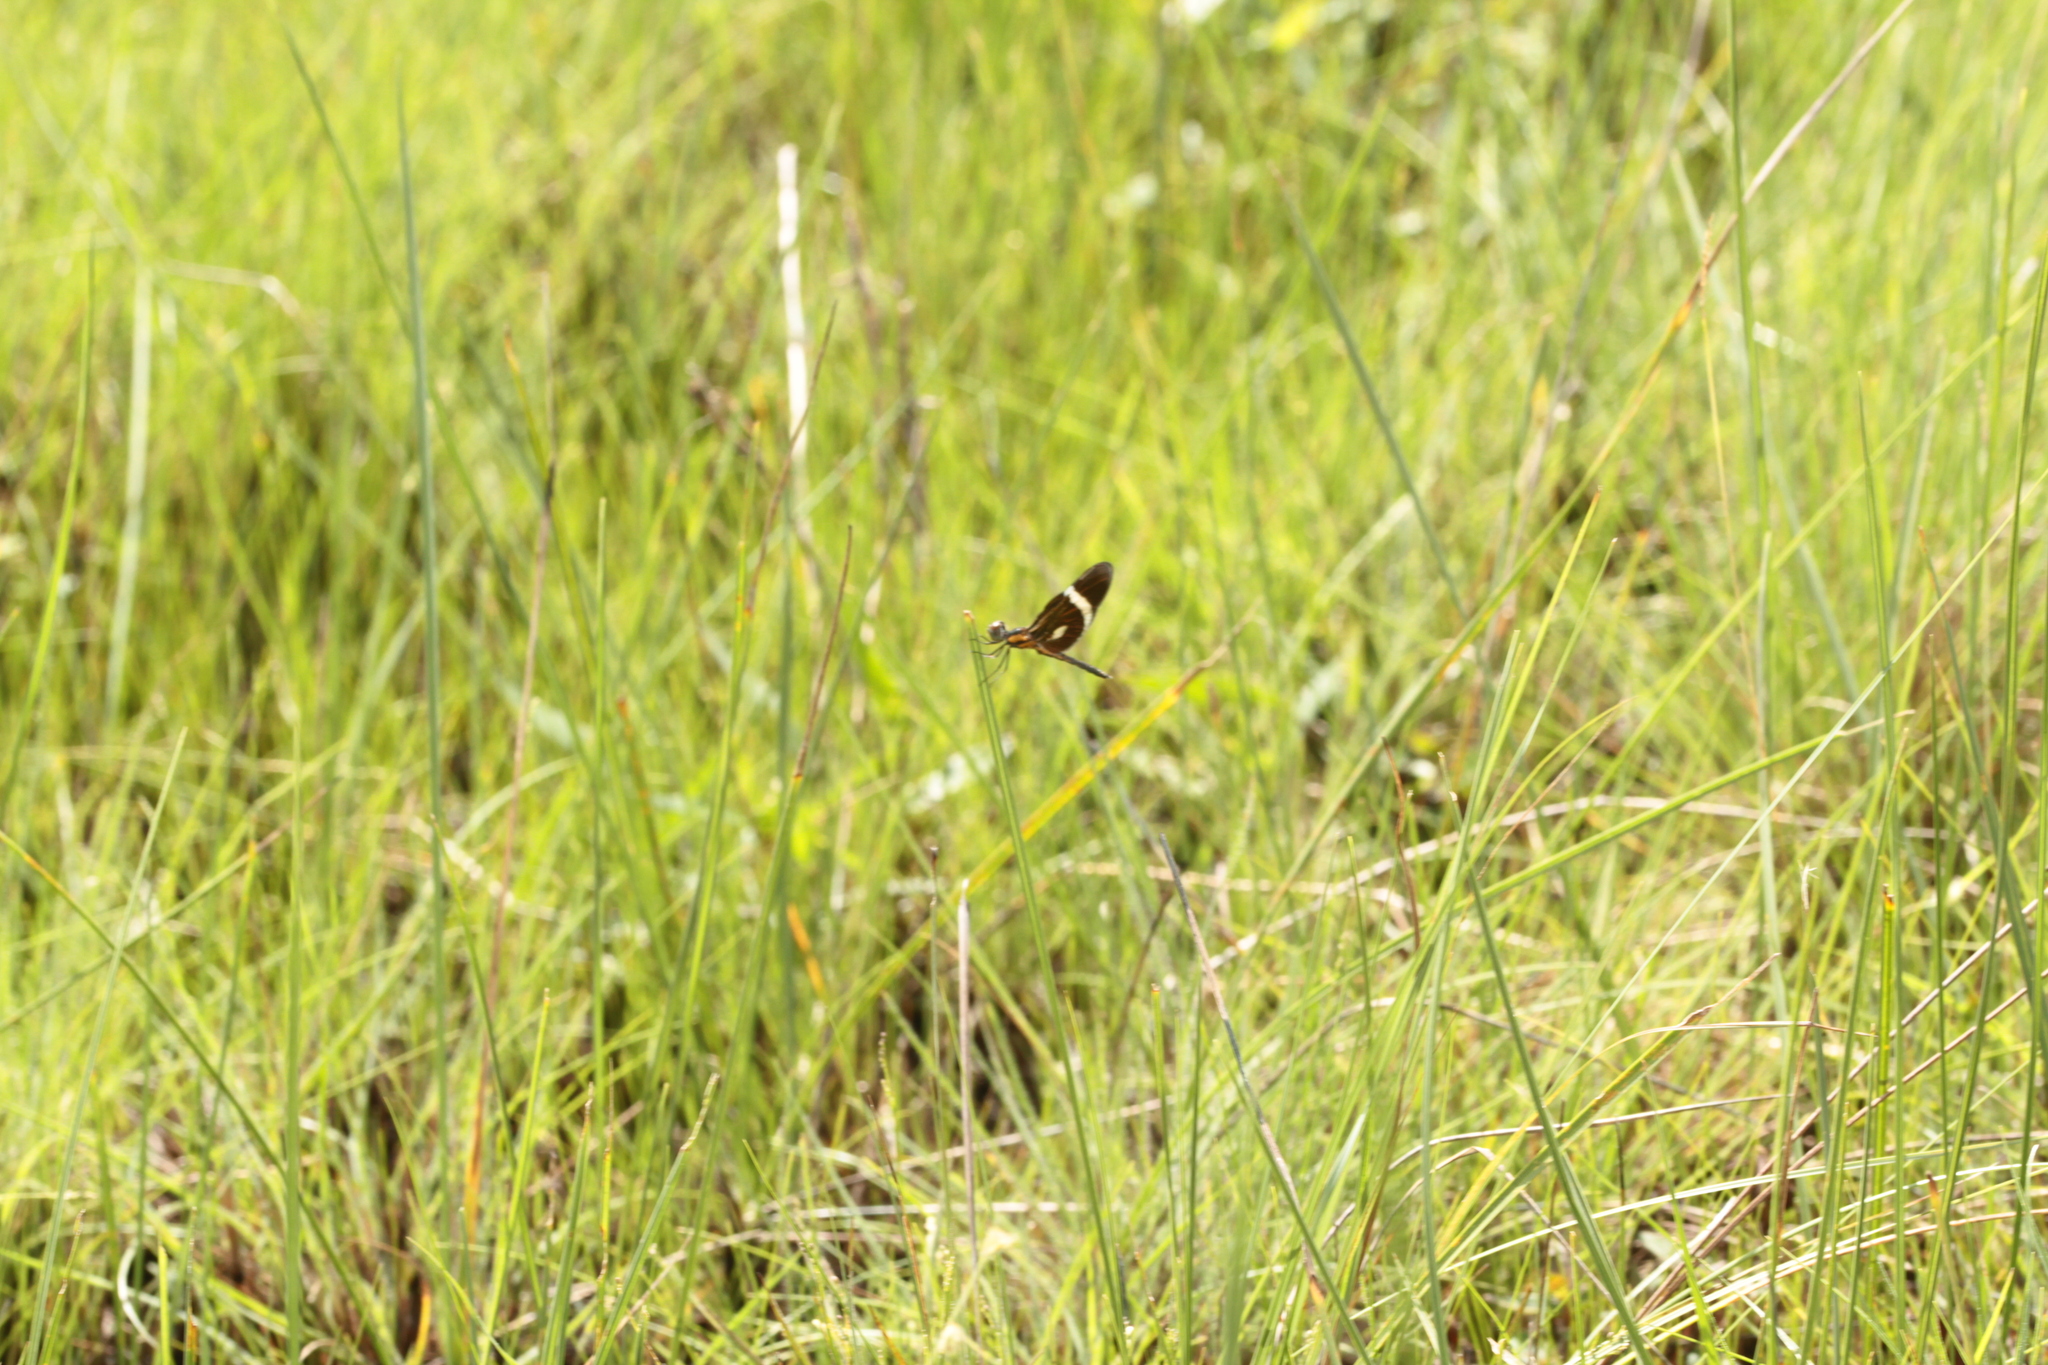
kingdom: Animalia
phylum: Arthropoda
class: Insecta
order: Odonata
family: Libellulidae
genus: Zenithoptera
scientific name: Zenithoptera viola
